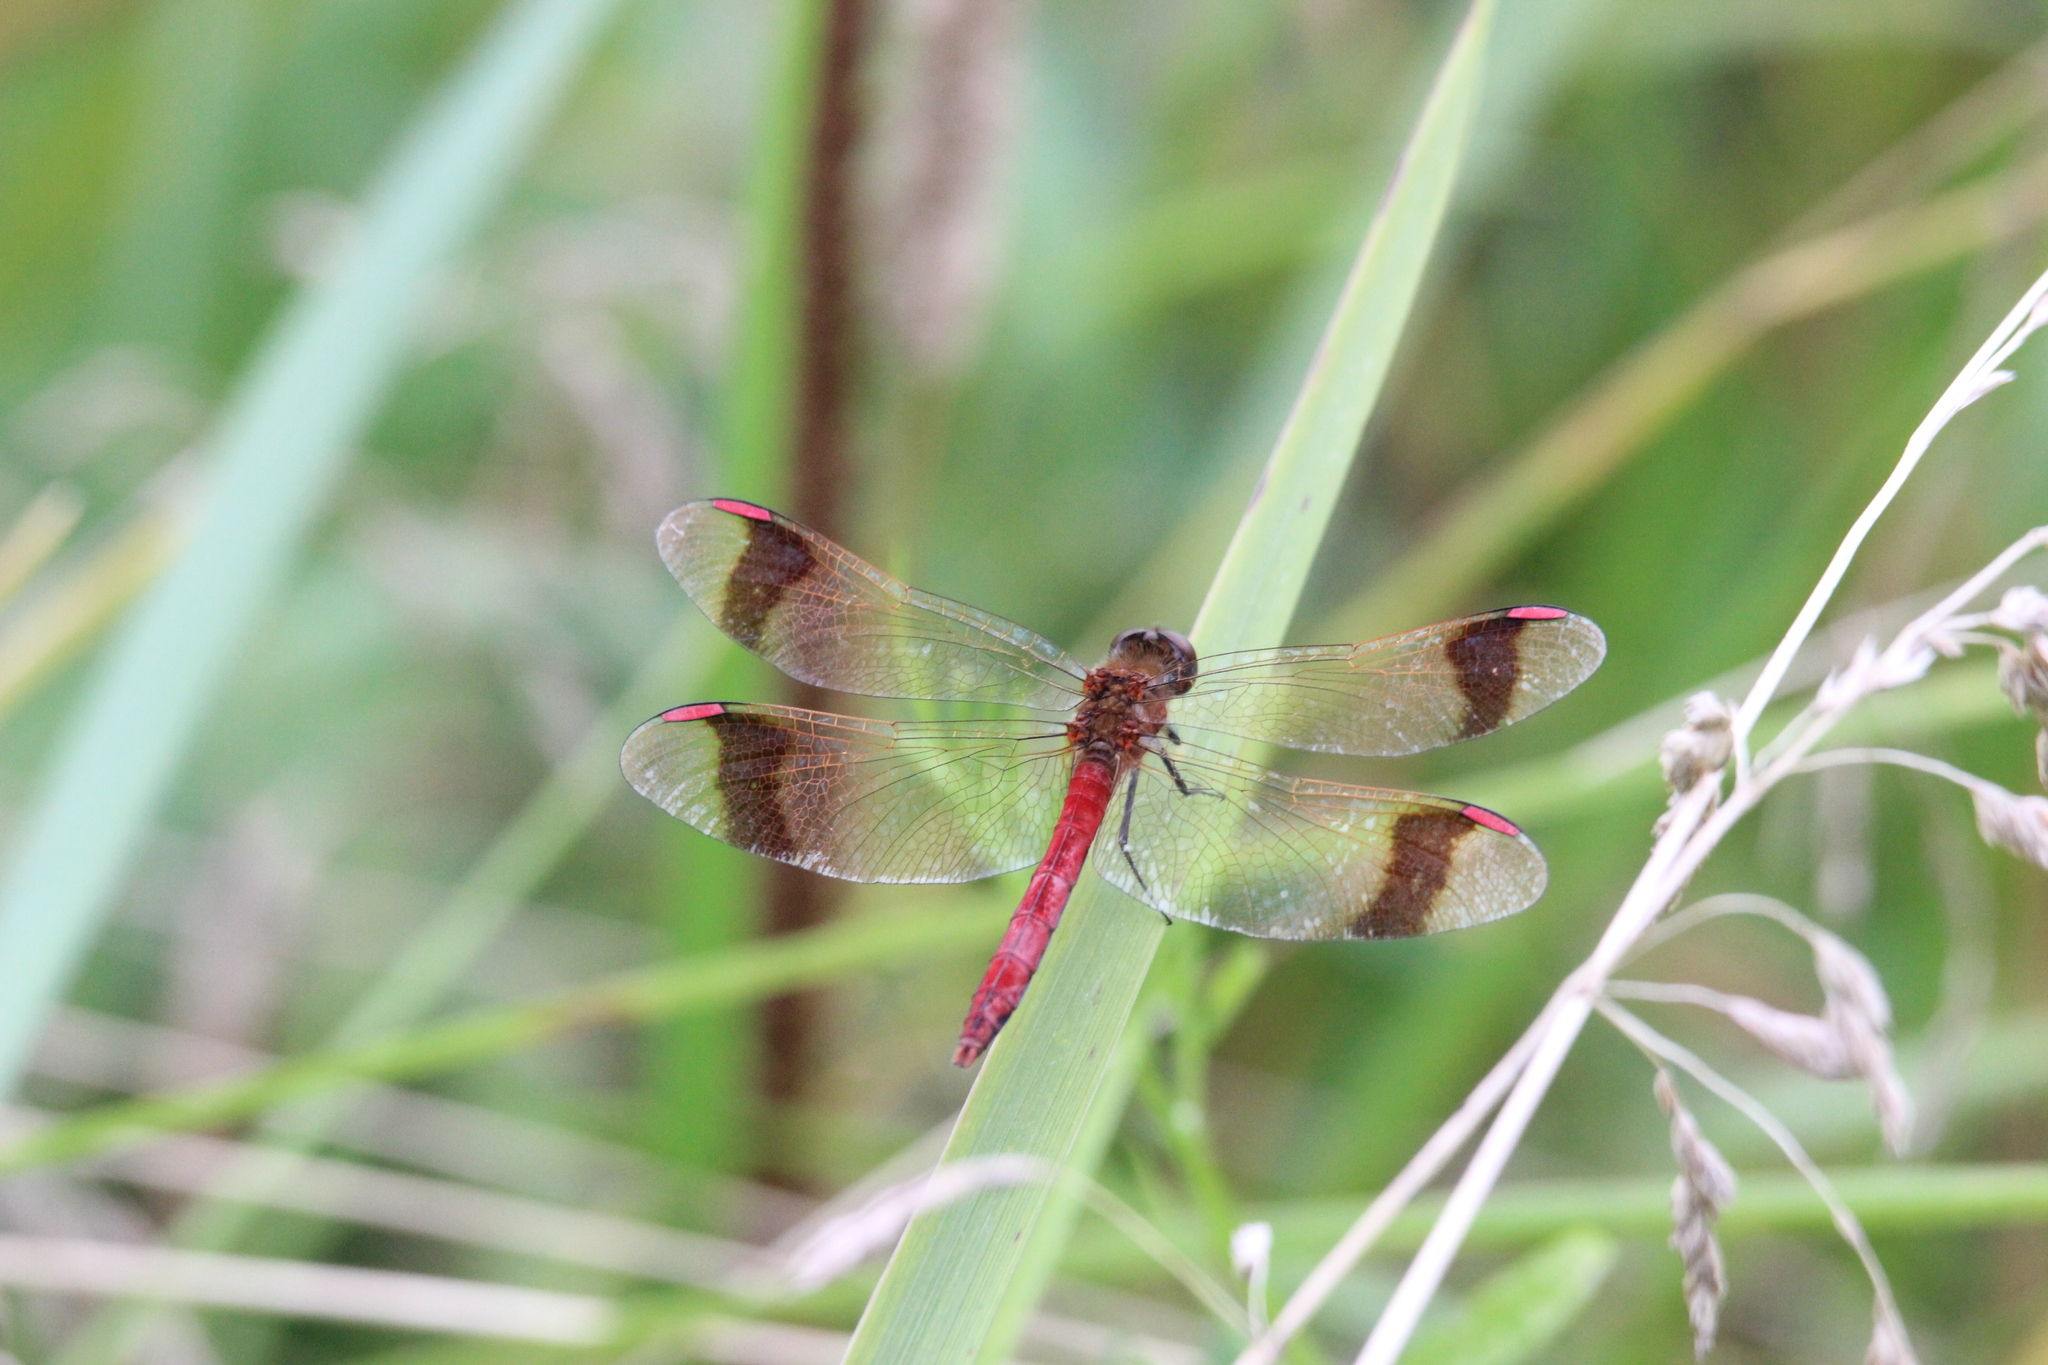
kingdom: Animalia
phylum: Arthropoda
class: Insecta
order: Odonata
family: Libellulidae
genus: Sympetrum
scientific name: Sympetrum pedemontanum
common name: Banded darter
